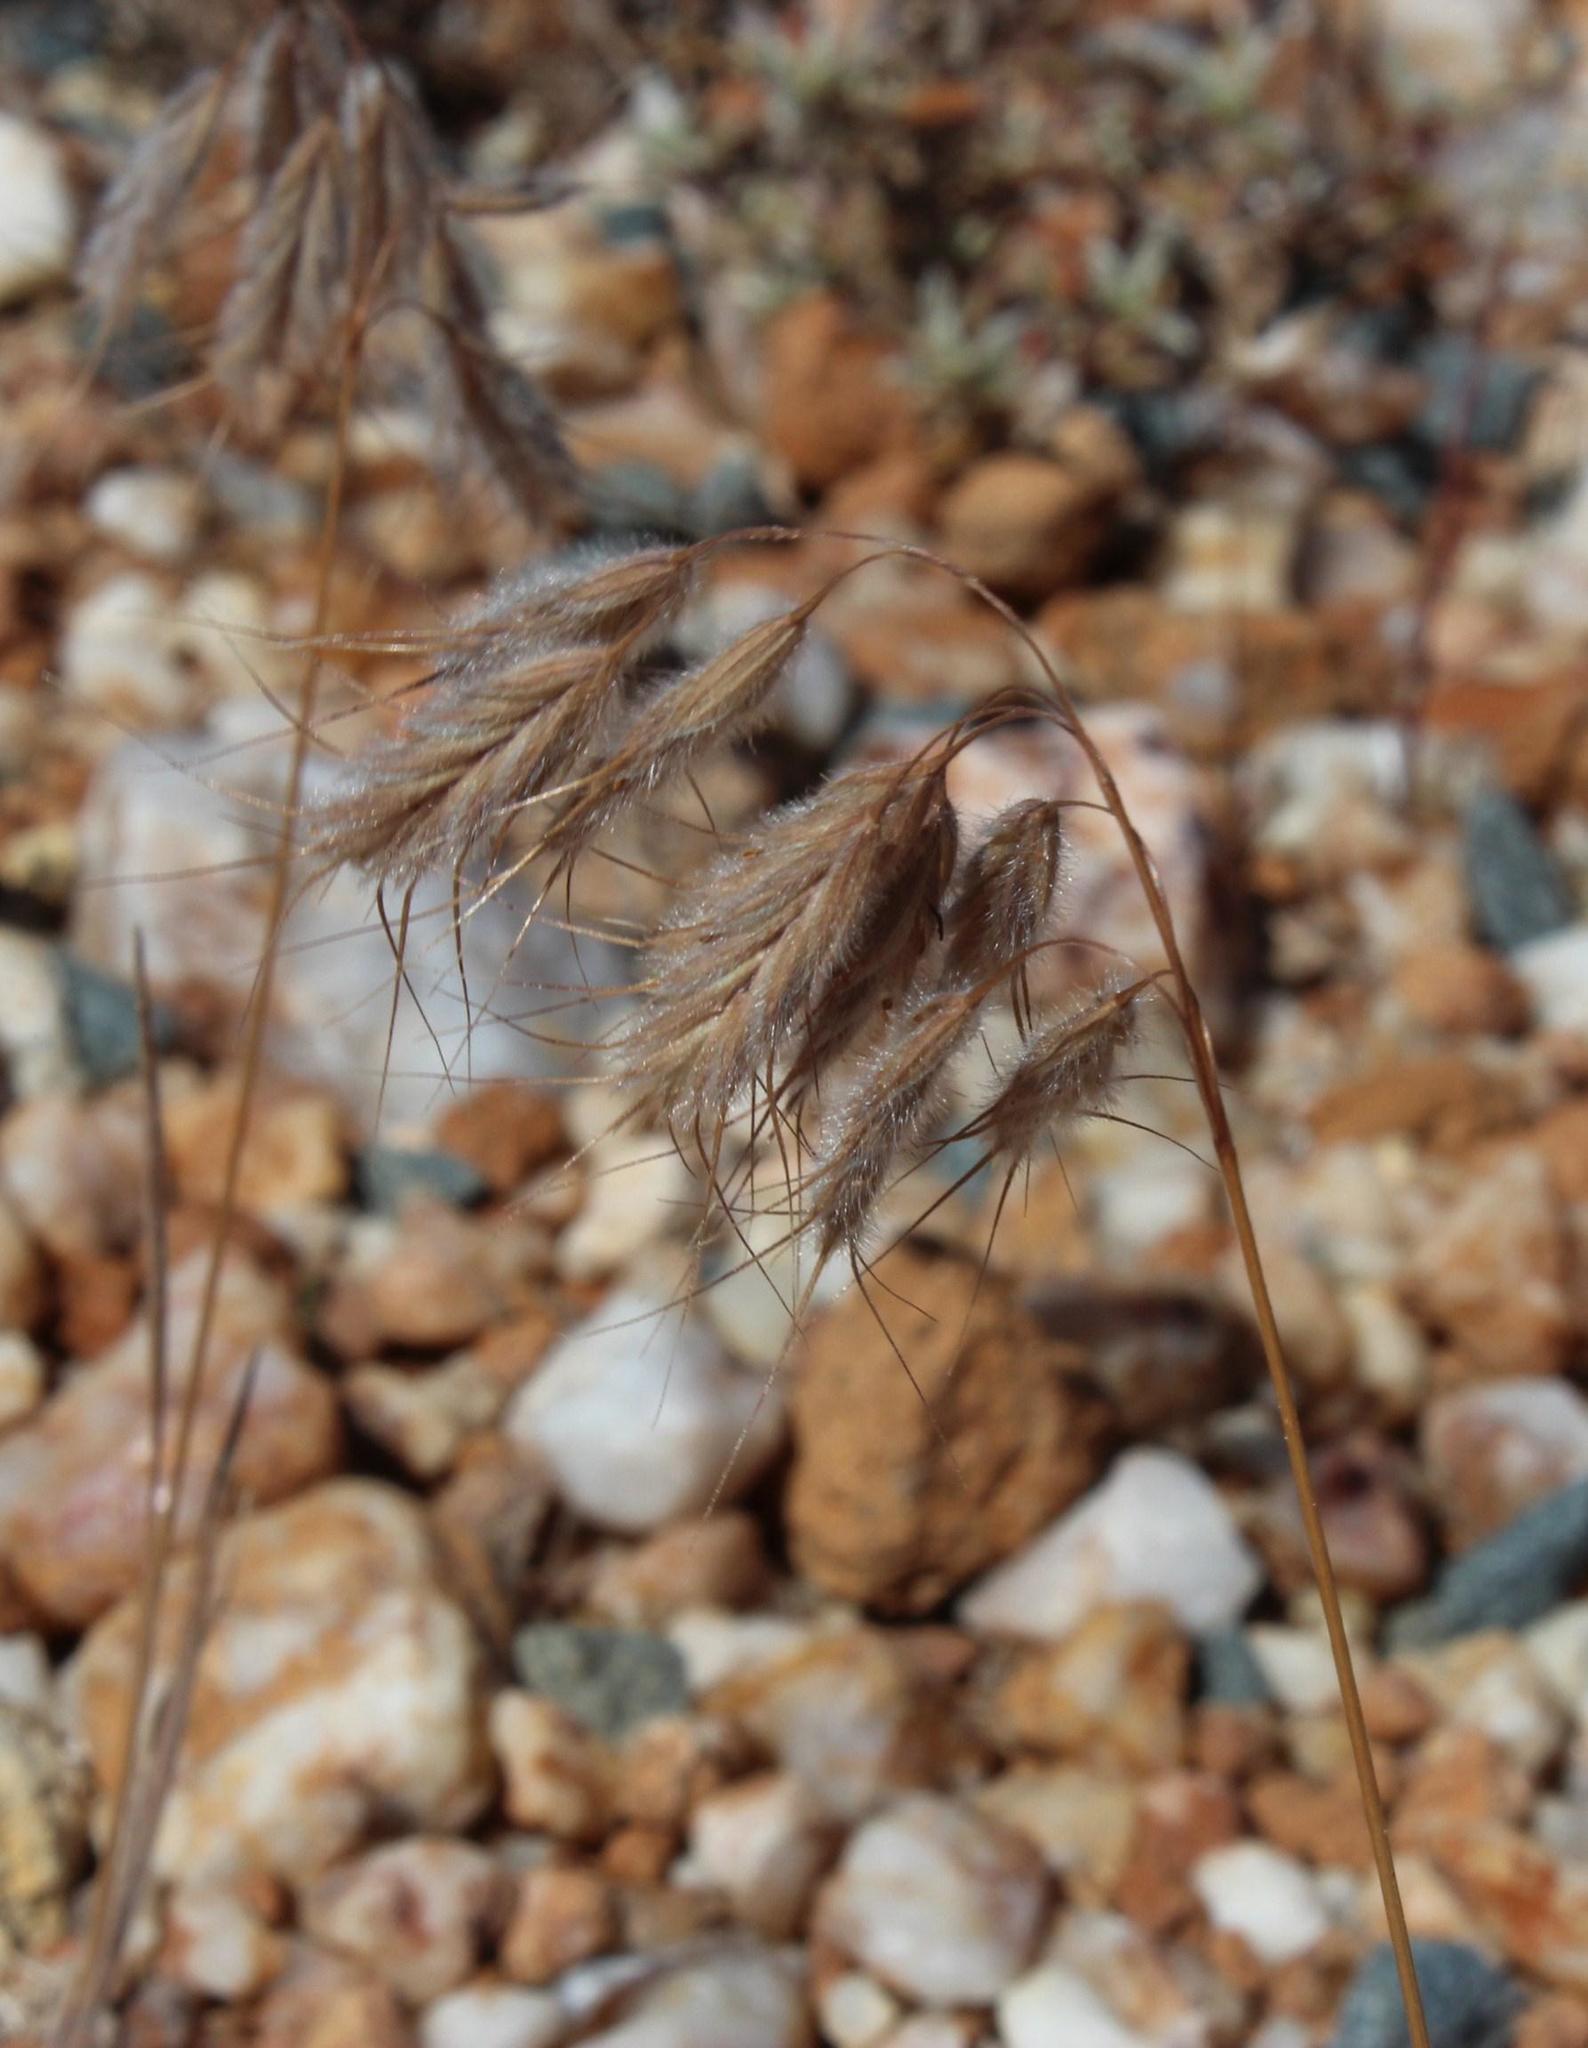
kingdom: Plantae
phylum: Tracheophyta
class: Liliopsida
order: Poales
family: Poaceae
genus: Bromus
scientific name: Bromus pectinatus
